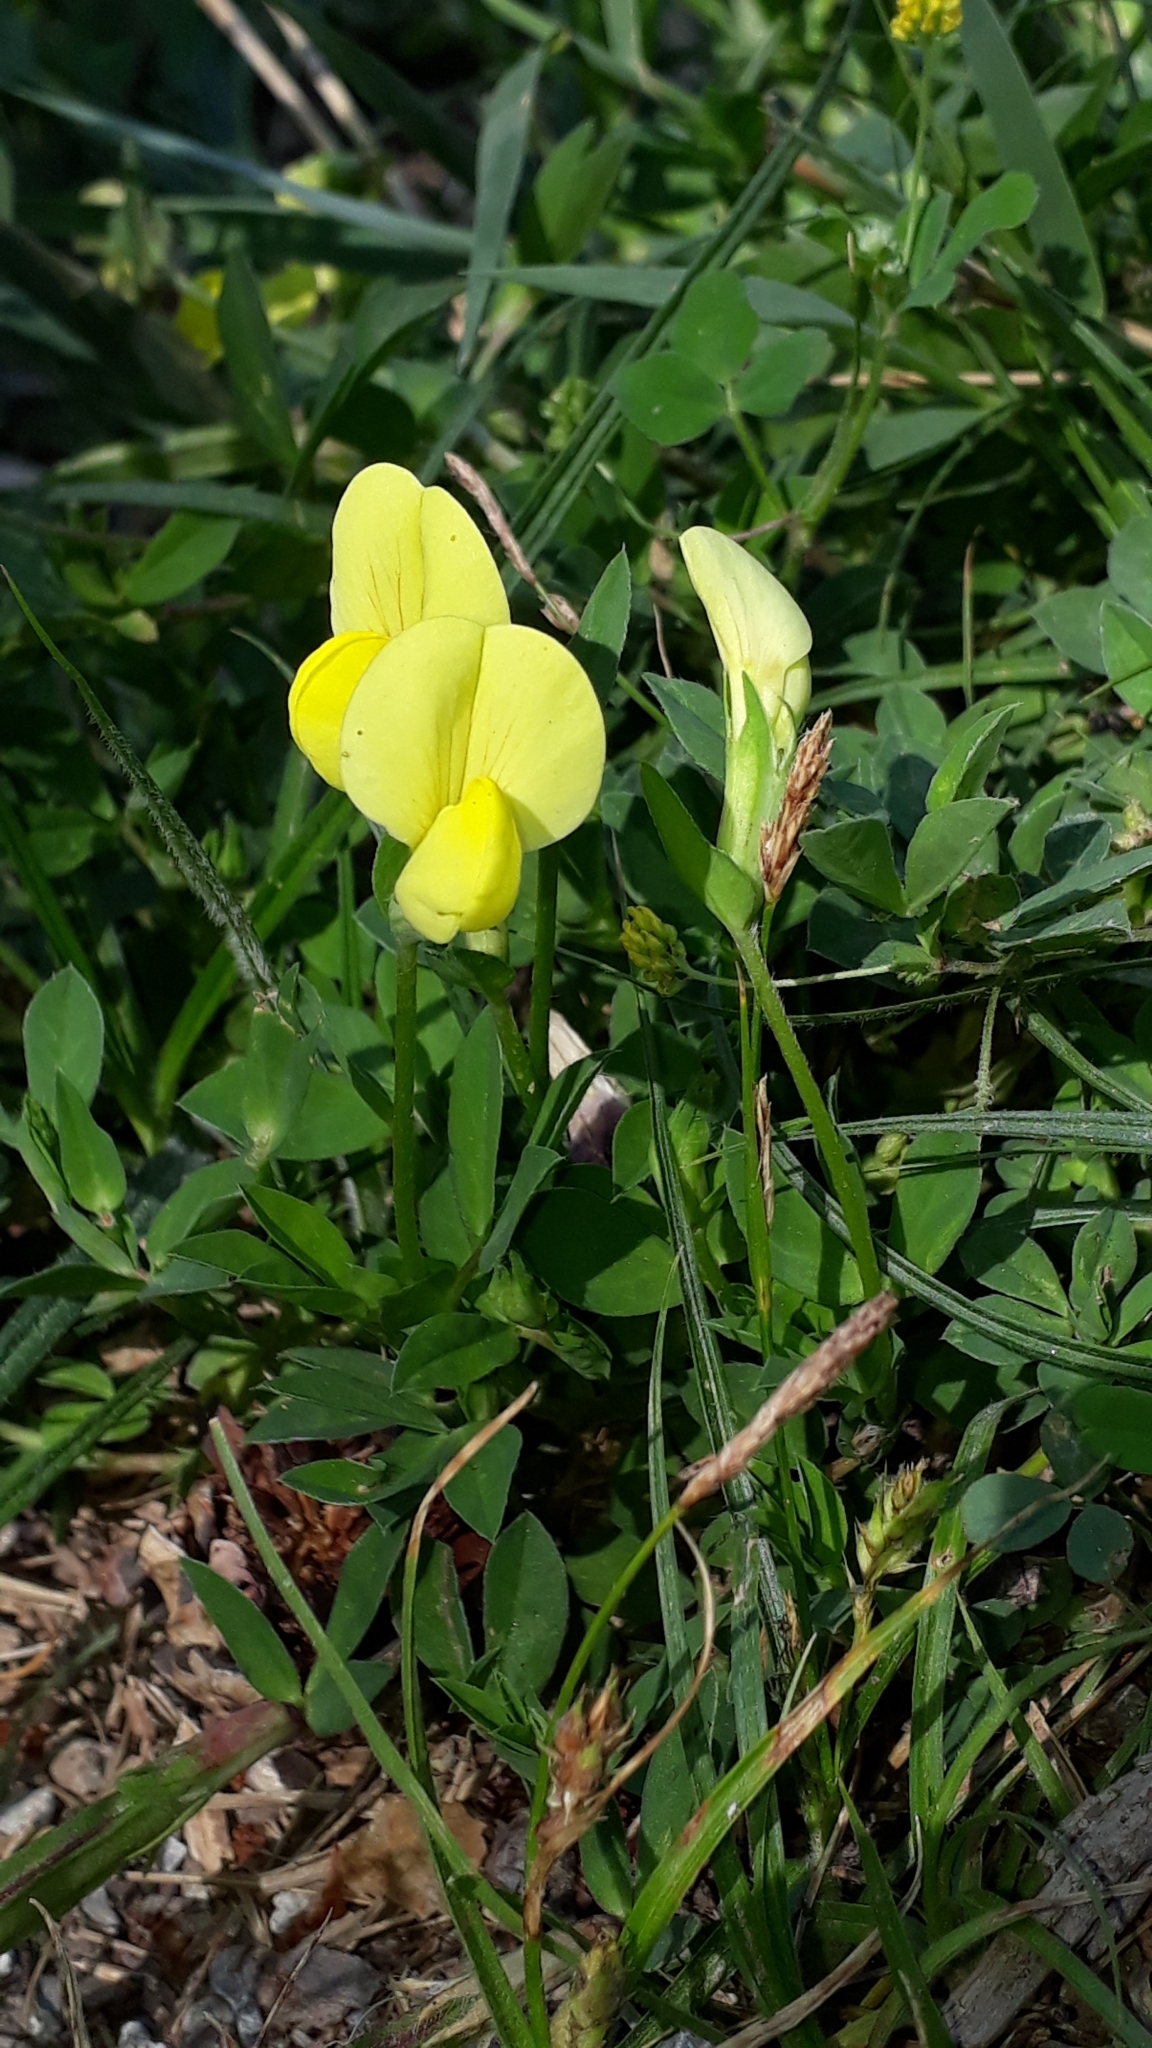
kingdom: Plantae
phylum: Tracheophyta
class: Magnoliopsida
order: Fabales
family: Fabaceae
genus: Lotus
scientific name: Lotus maritimus
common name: Dragon's-teeth
